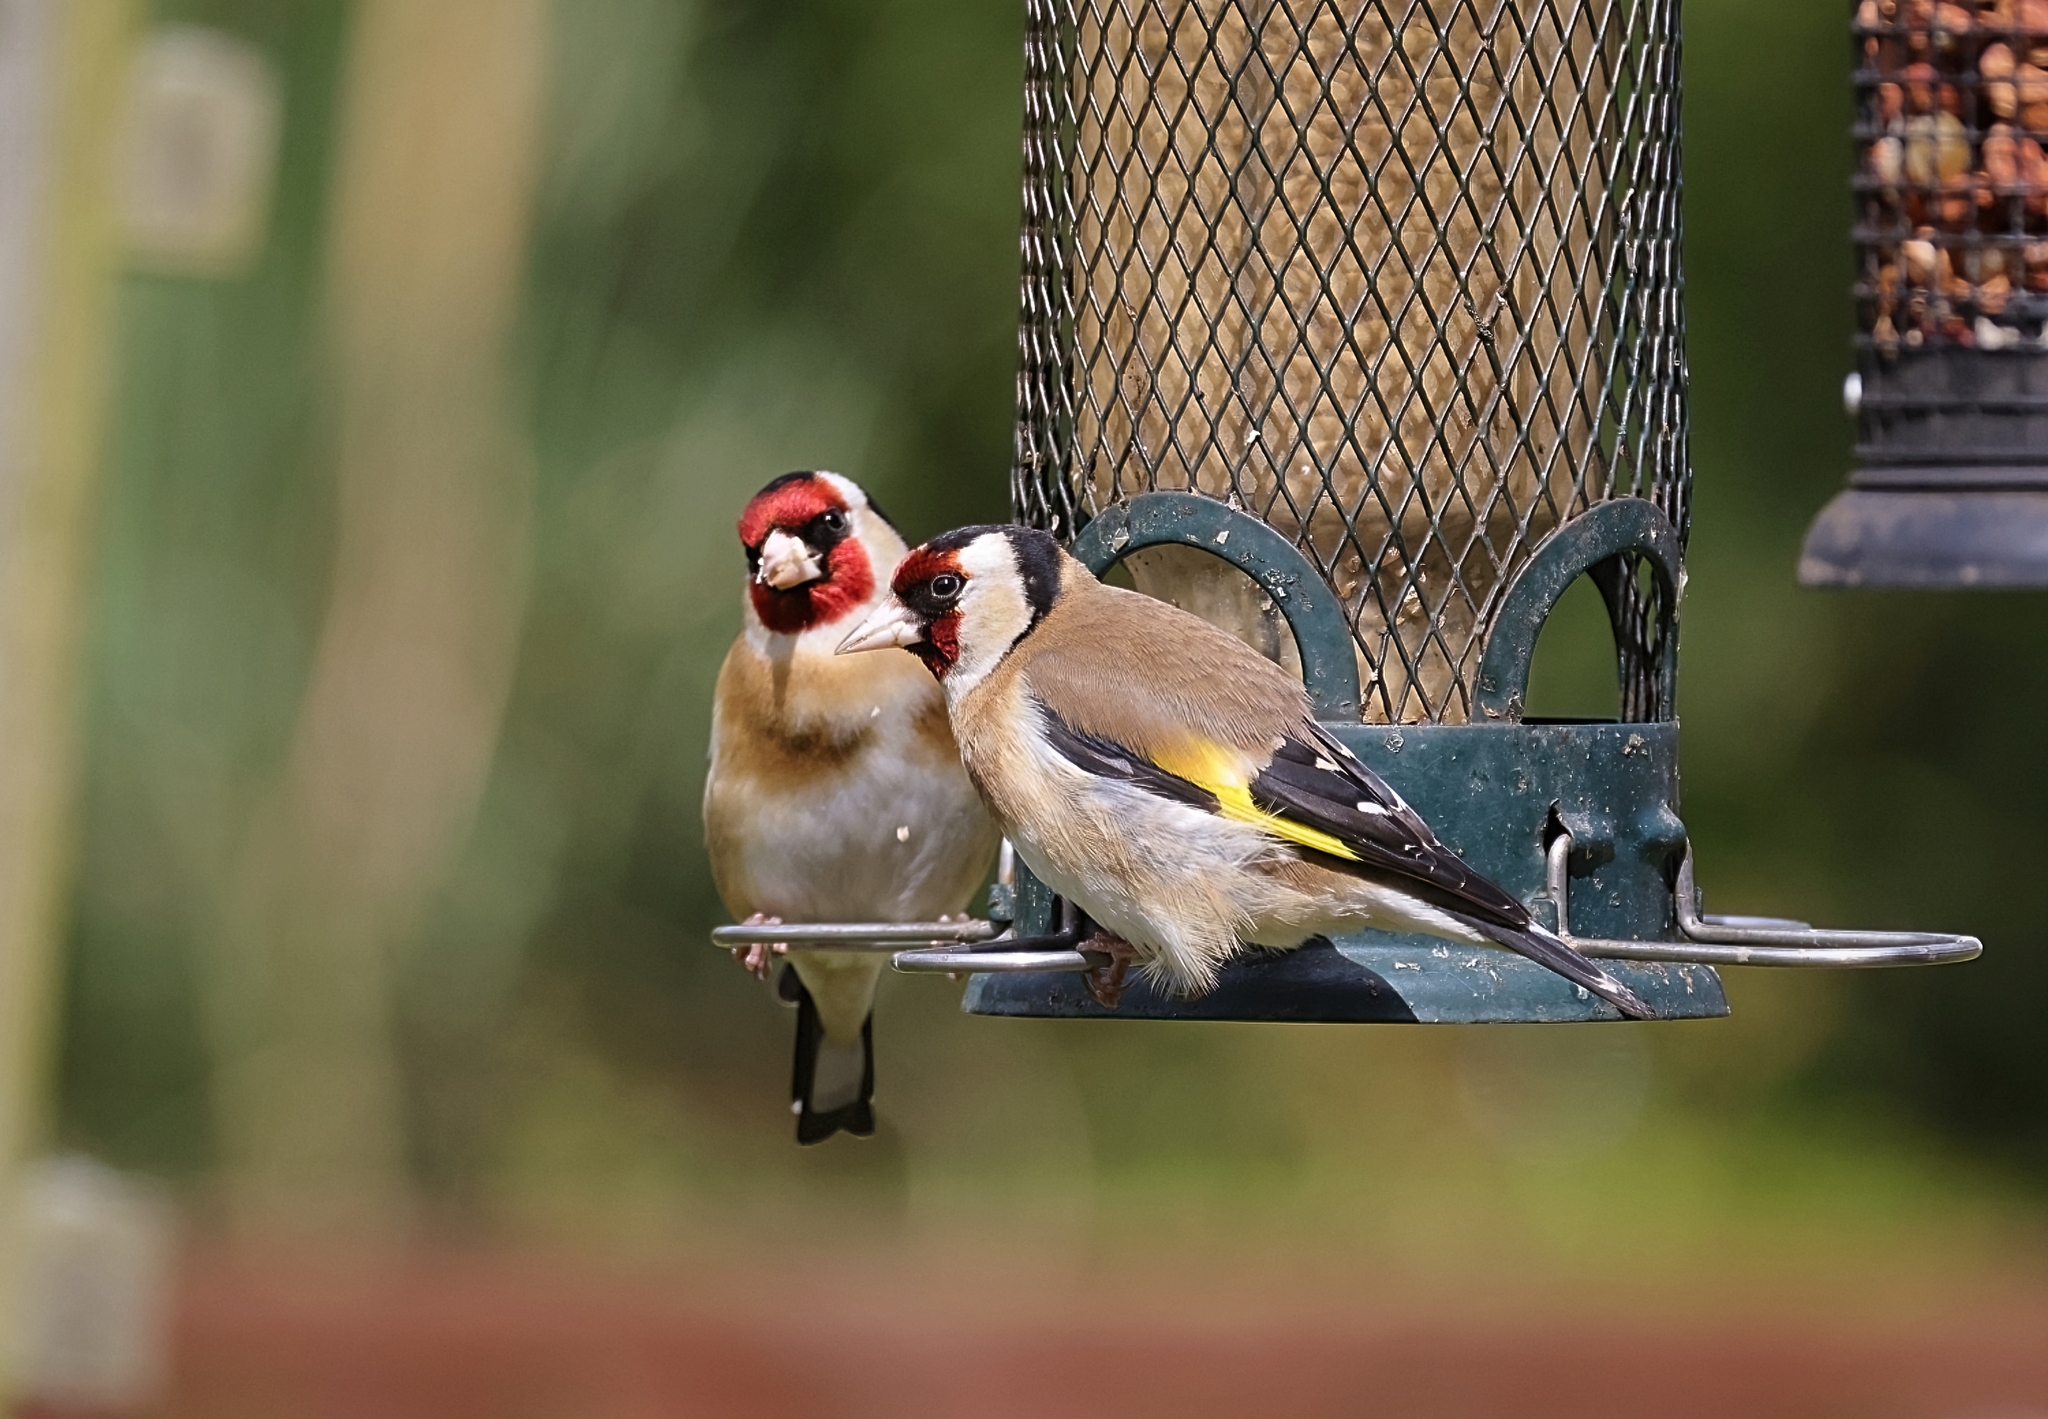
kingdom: Animalia
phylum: Chordata
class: Aves
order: Passeriformes
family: Fringillidae
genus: Carduelis
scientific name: Carduelis carduelis
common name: European goldfinch
